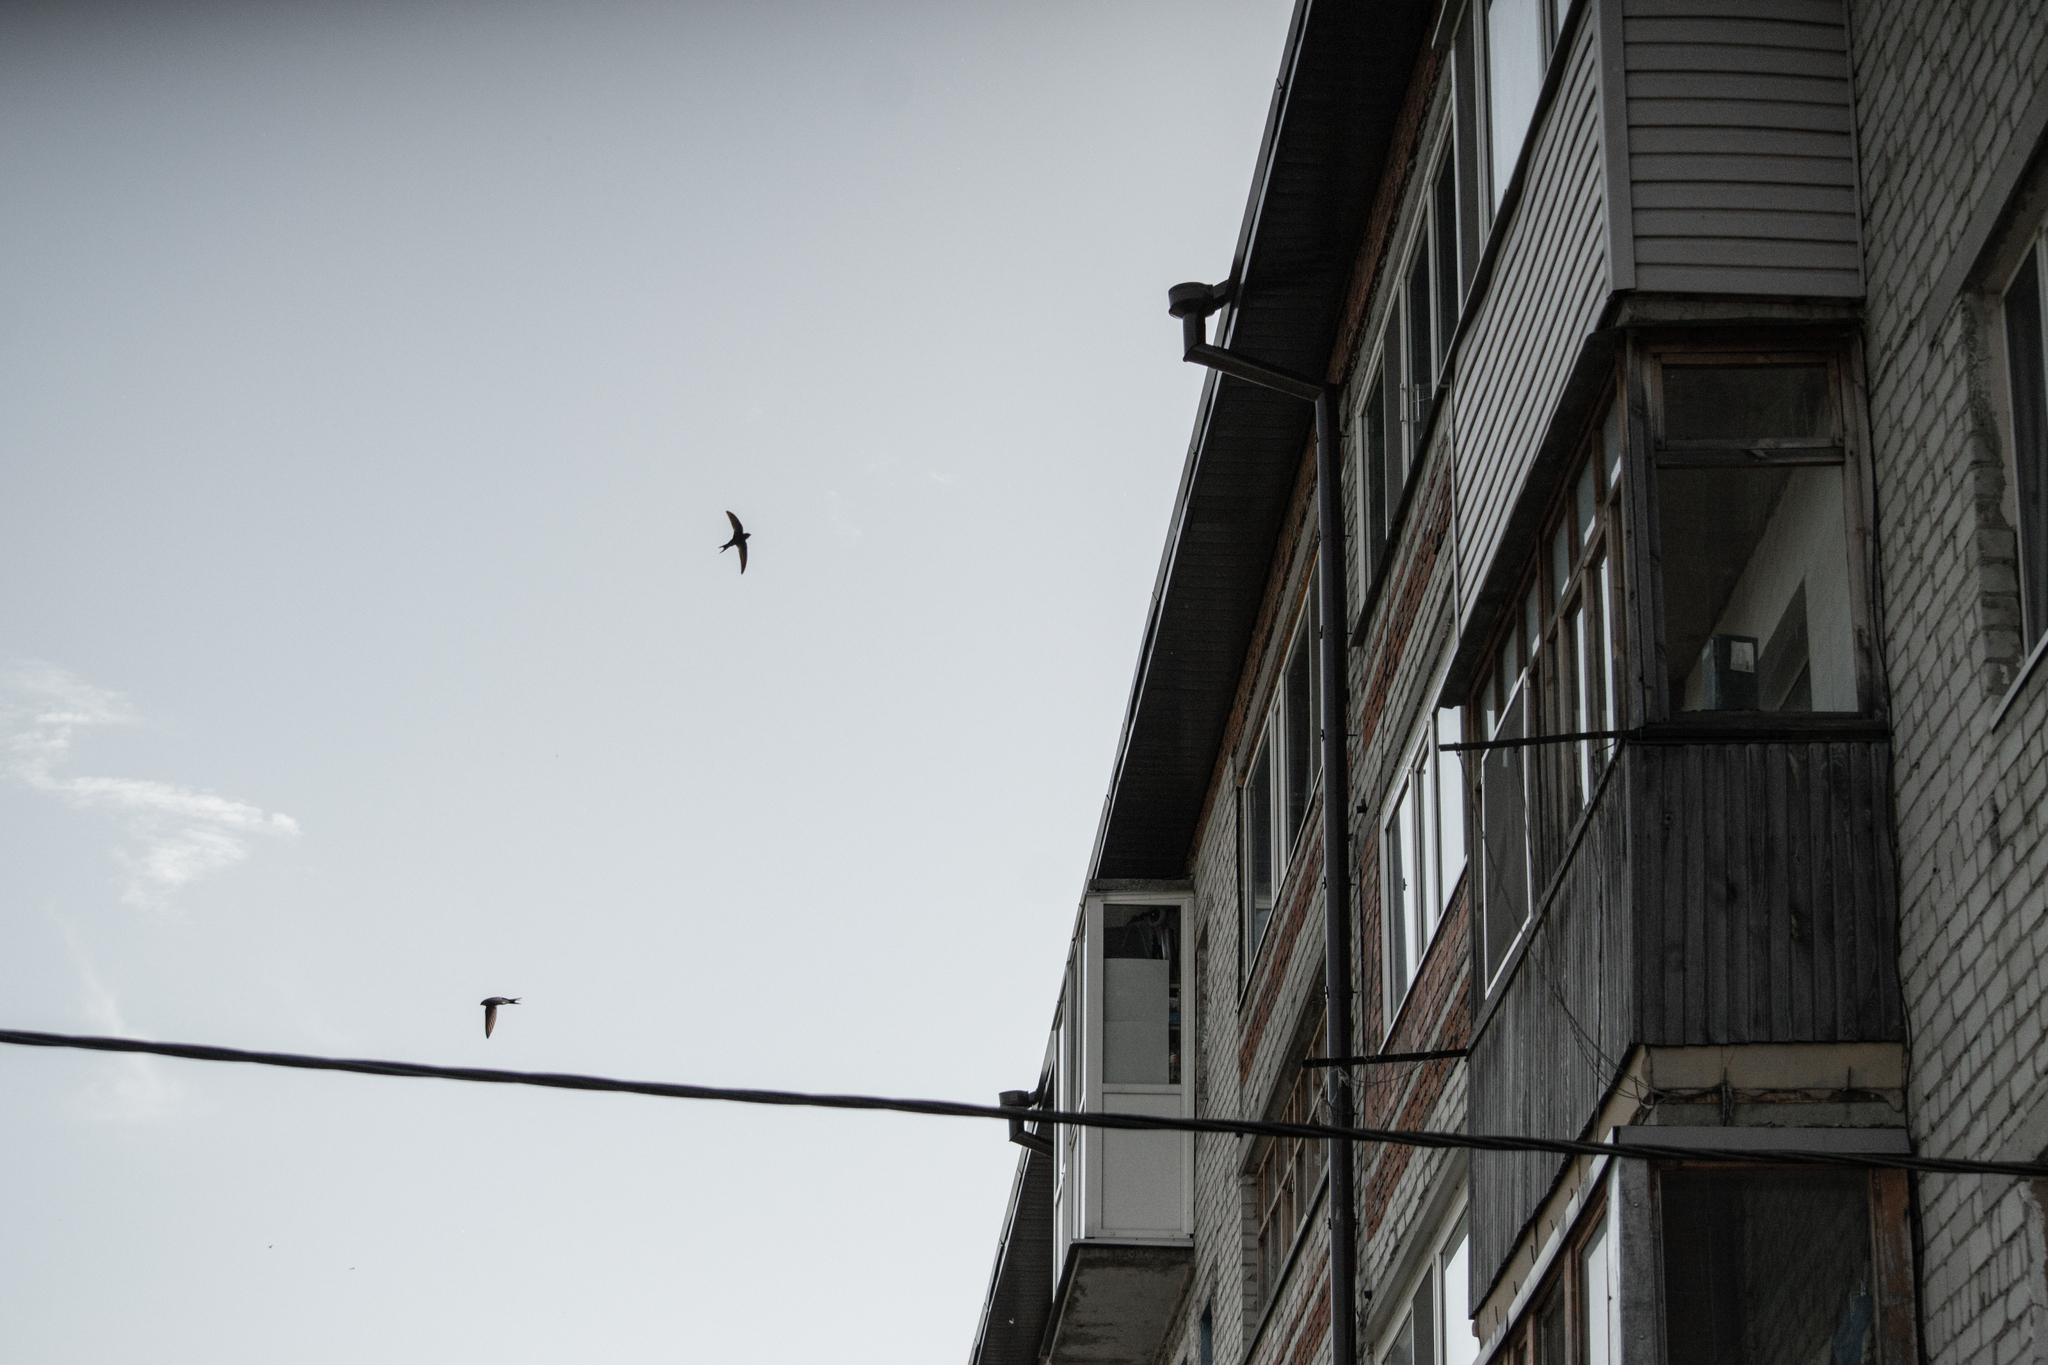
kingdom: Animalia
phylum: Chordata
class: Aves
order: Apodiformes
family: Apodidae
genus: Apus
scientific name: Apus apus
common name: Common swift
